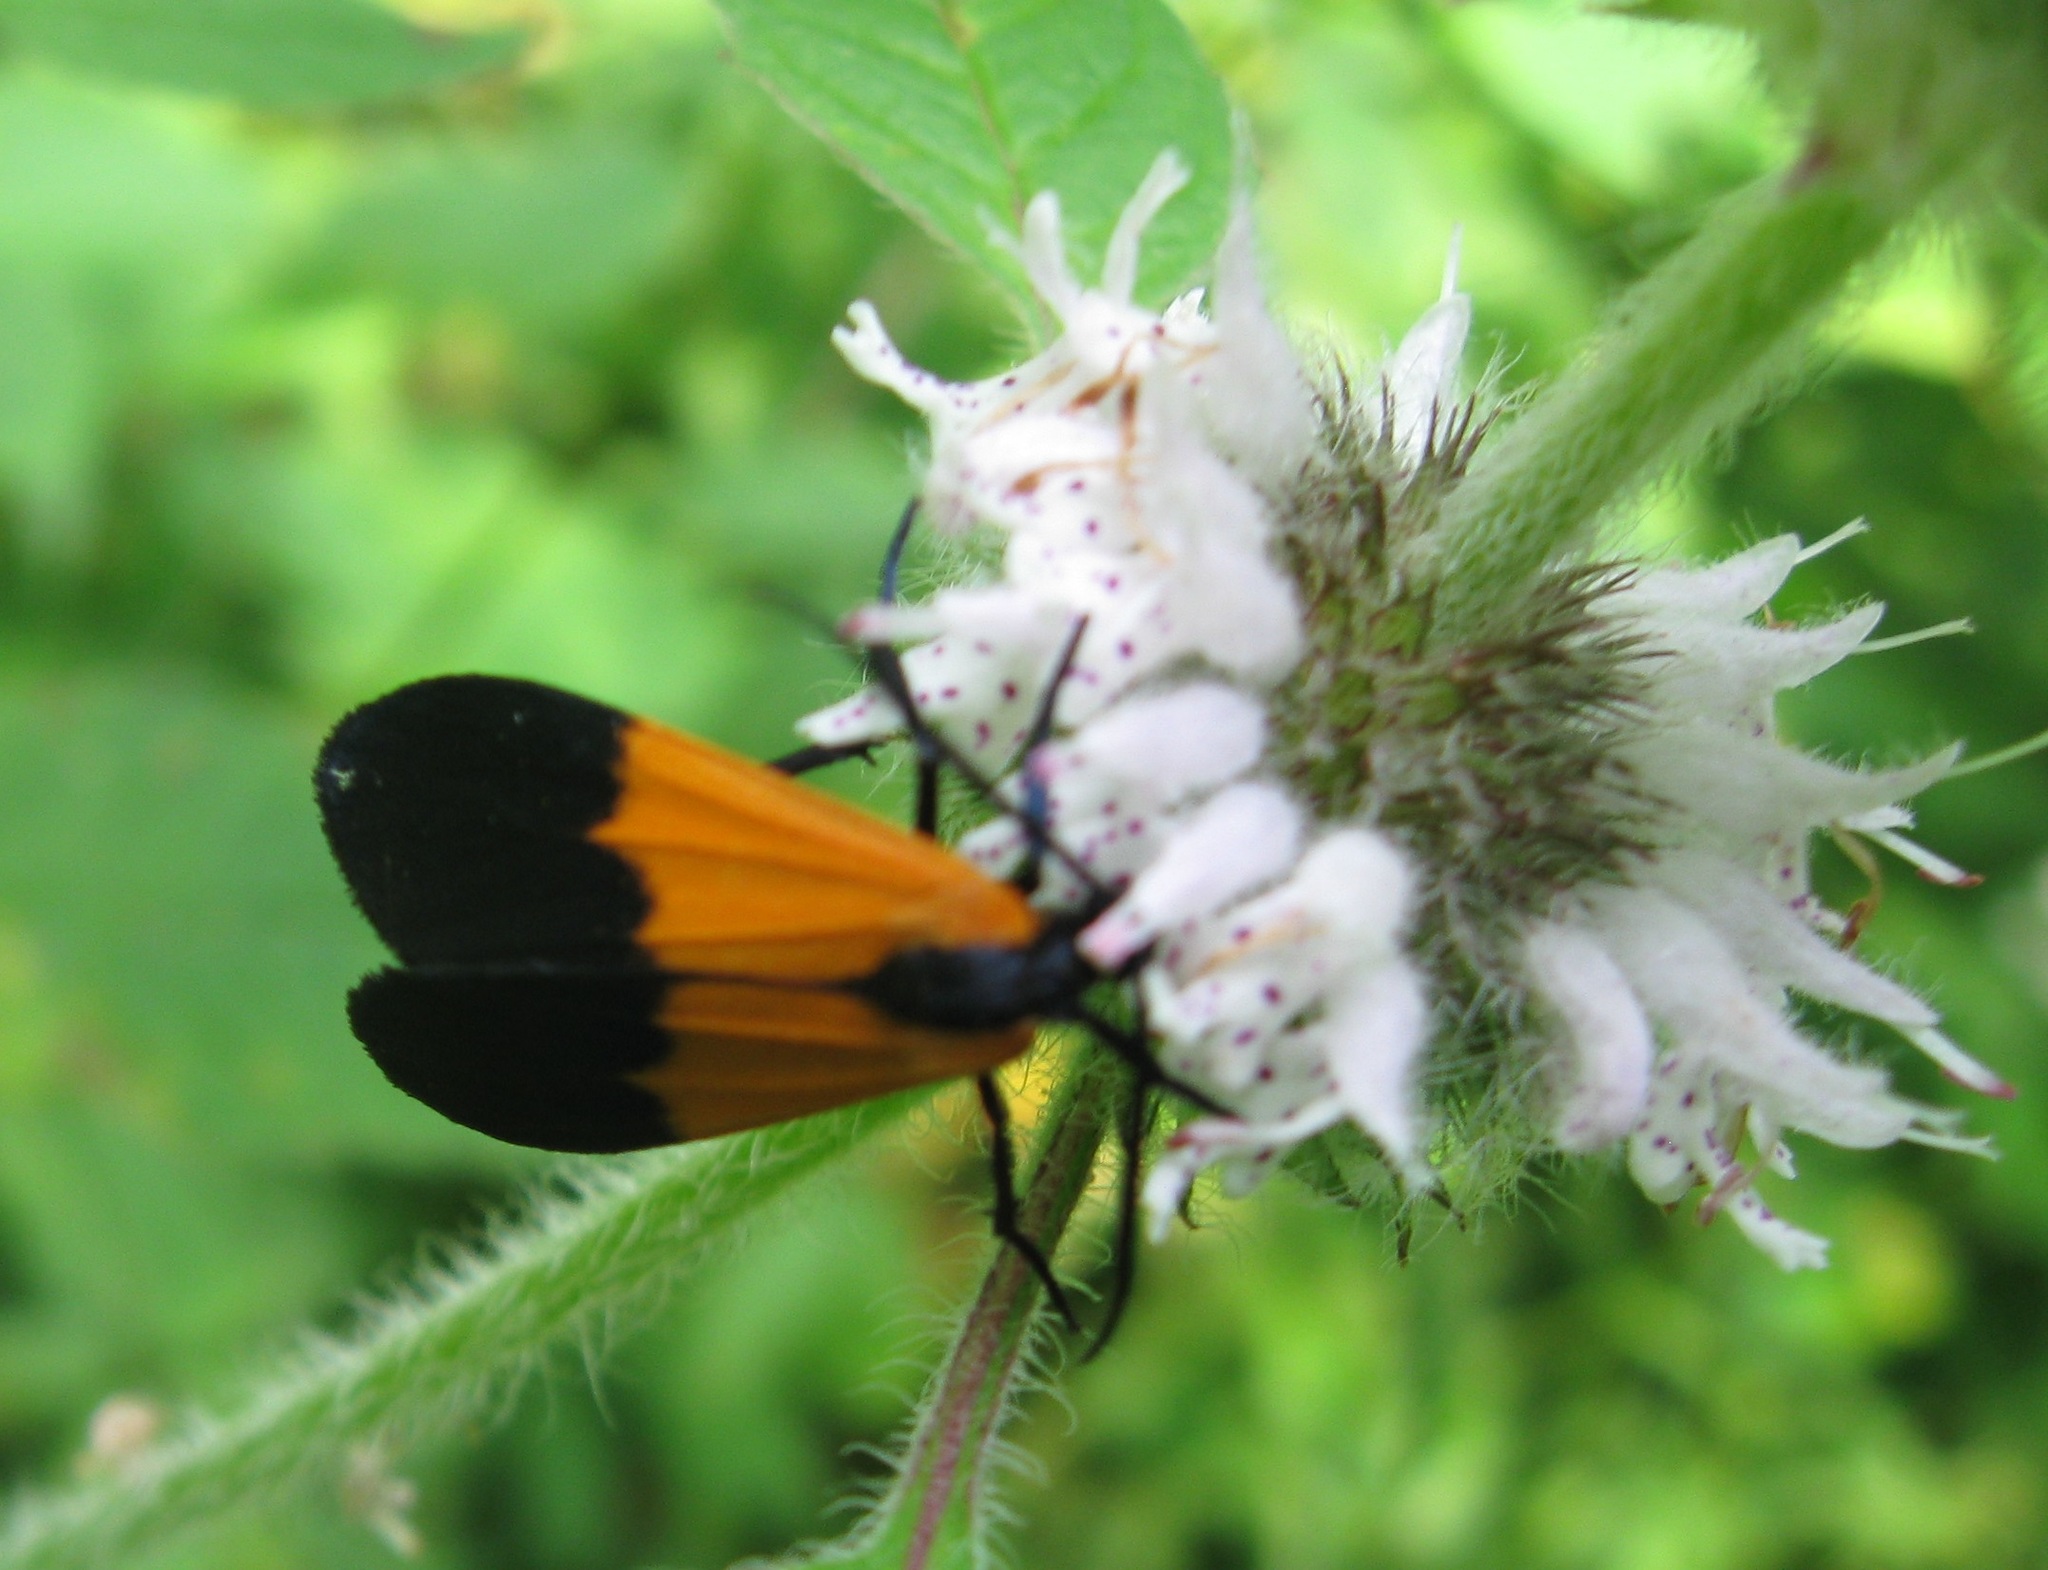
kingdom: Animalia
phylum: Arthropoda
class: Insecta
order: Lepidoptera
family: Erebidae
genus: Lycomorpha
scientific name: Lycomorpha pholus
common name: Black-and-yellow lichen moth
